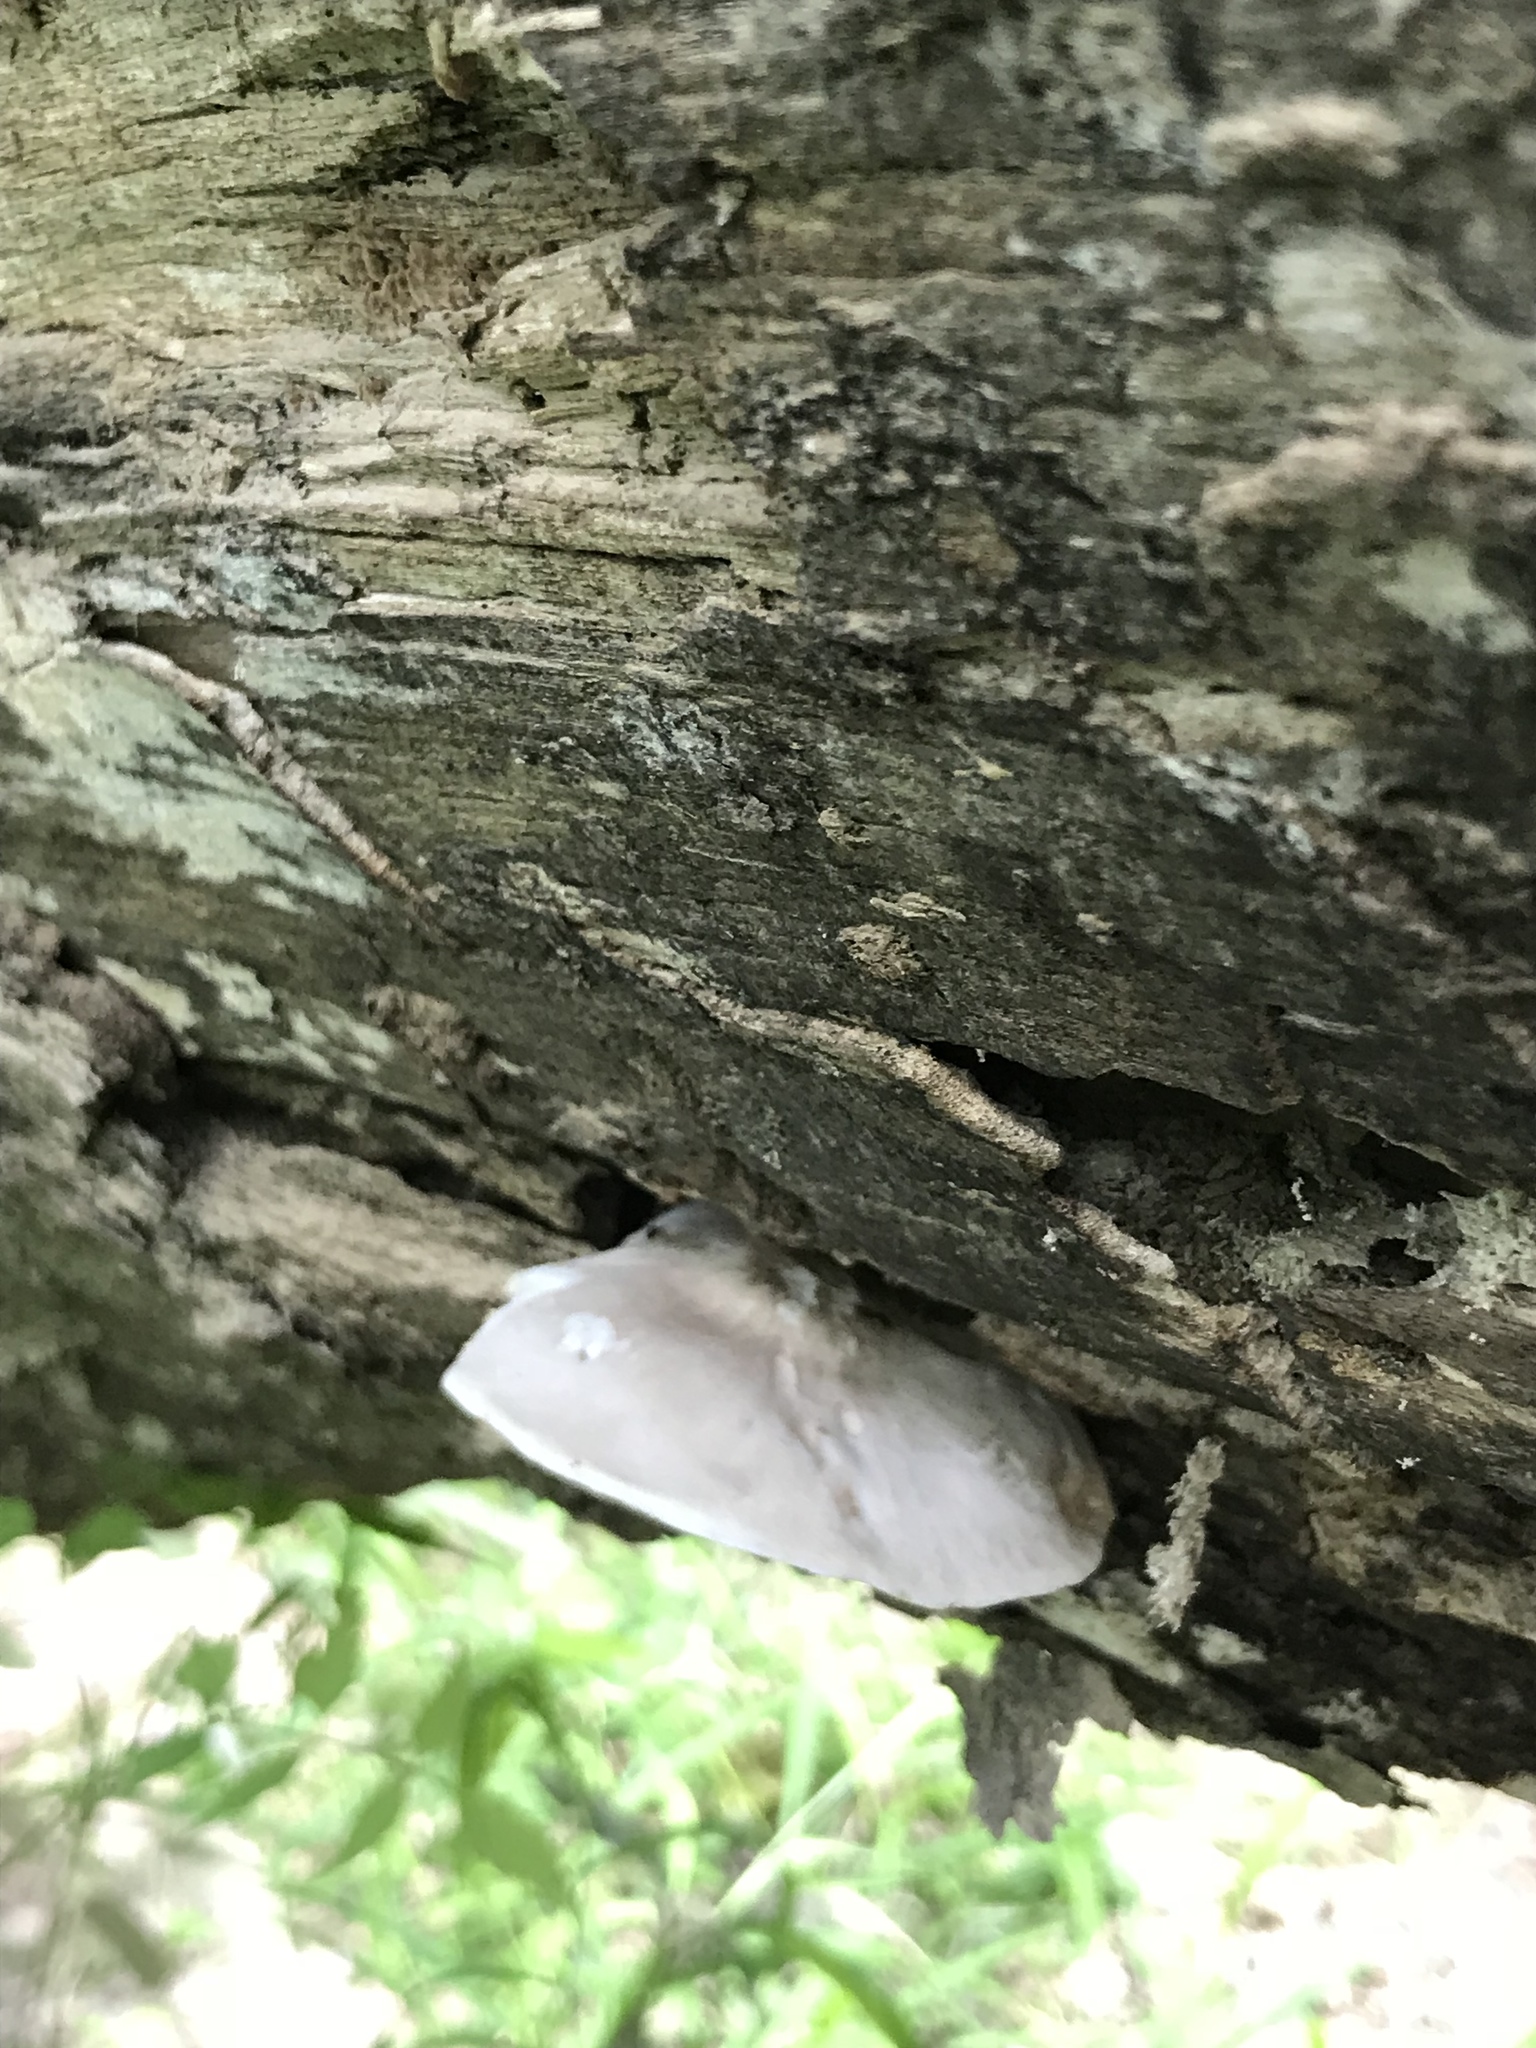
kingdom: Fungi
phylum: Basidiomycota
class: Agaricomycetes
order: Agaricales
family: Pluteaceae
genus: Pluteus
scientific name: Pluteus cervinus
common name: Deer shield
